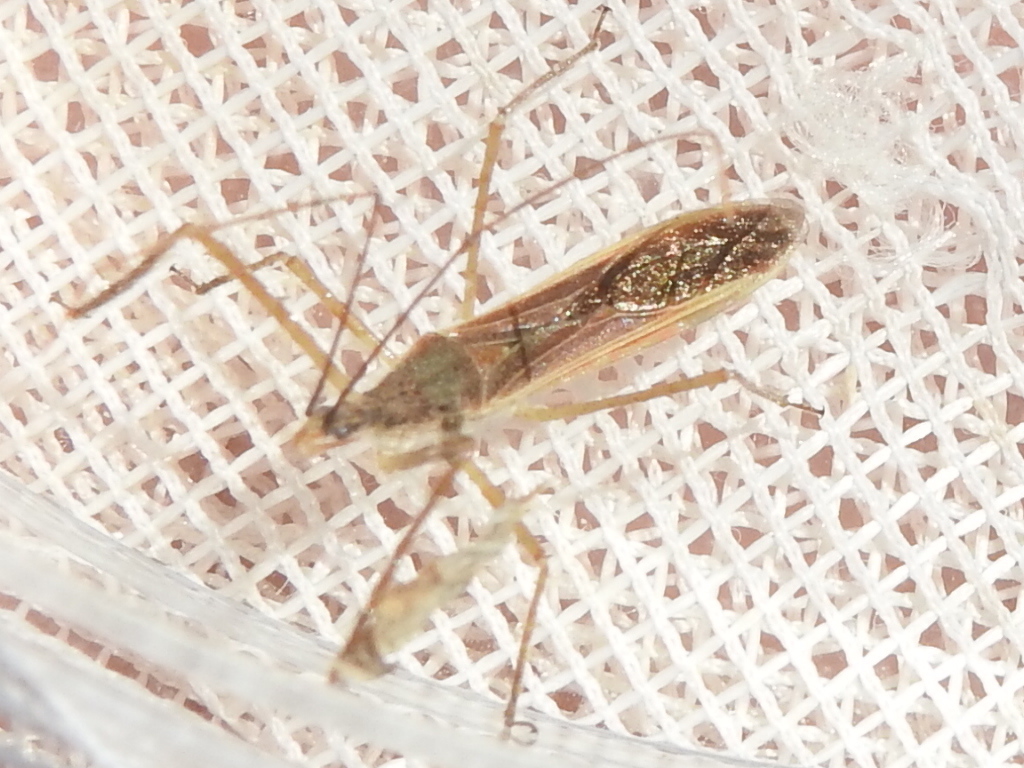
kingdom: Animalia
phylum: Arthropoda
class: Insecta
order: Hemiptera
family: Reduviidae
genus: Zelus
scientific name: Zelus cervicalis
